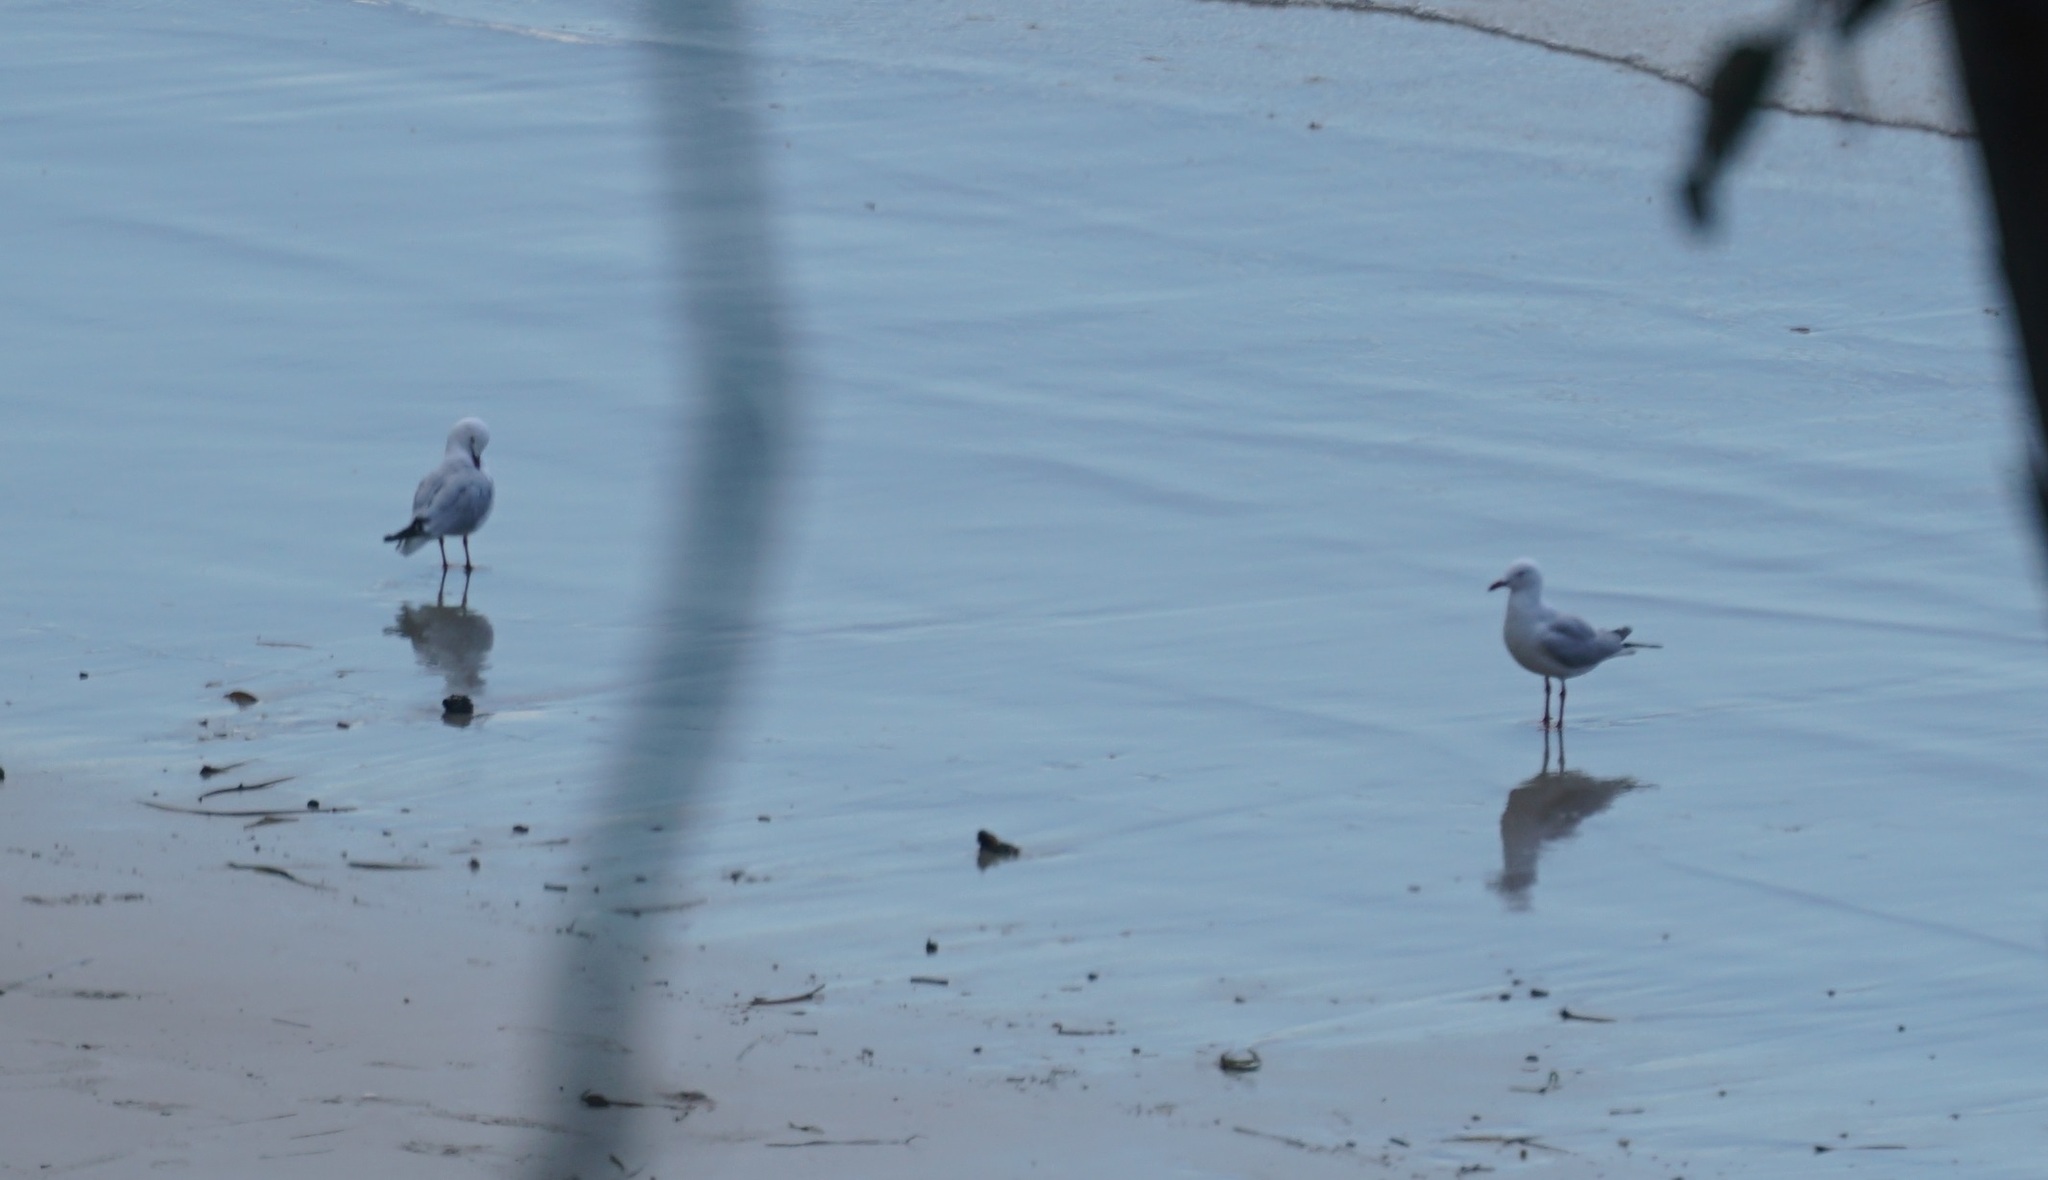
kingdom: Animalia
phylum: Chordata
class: Aves
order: Charadriiformes
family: Laridae
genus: Chroicocephalus
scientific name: Chroicocephalus novaehollandiae
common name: Silver gull
